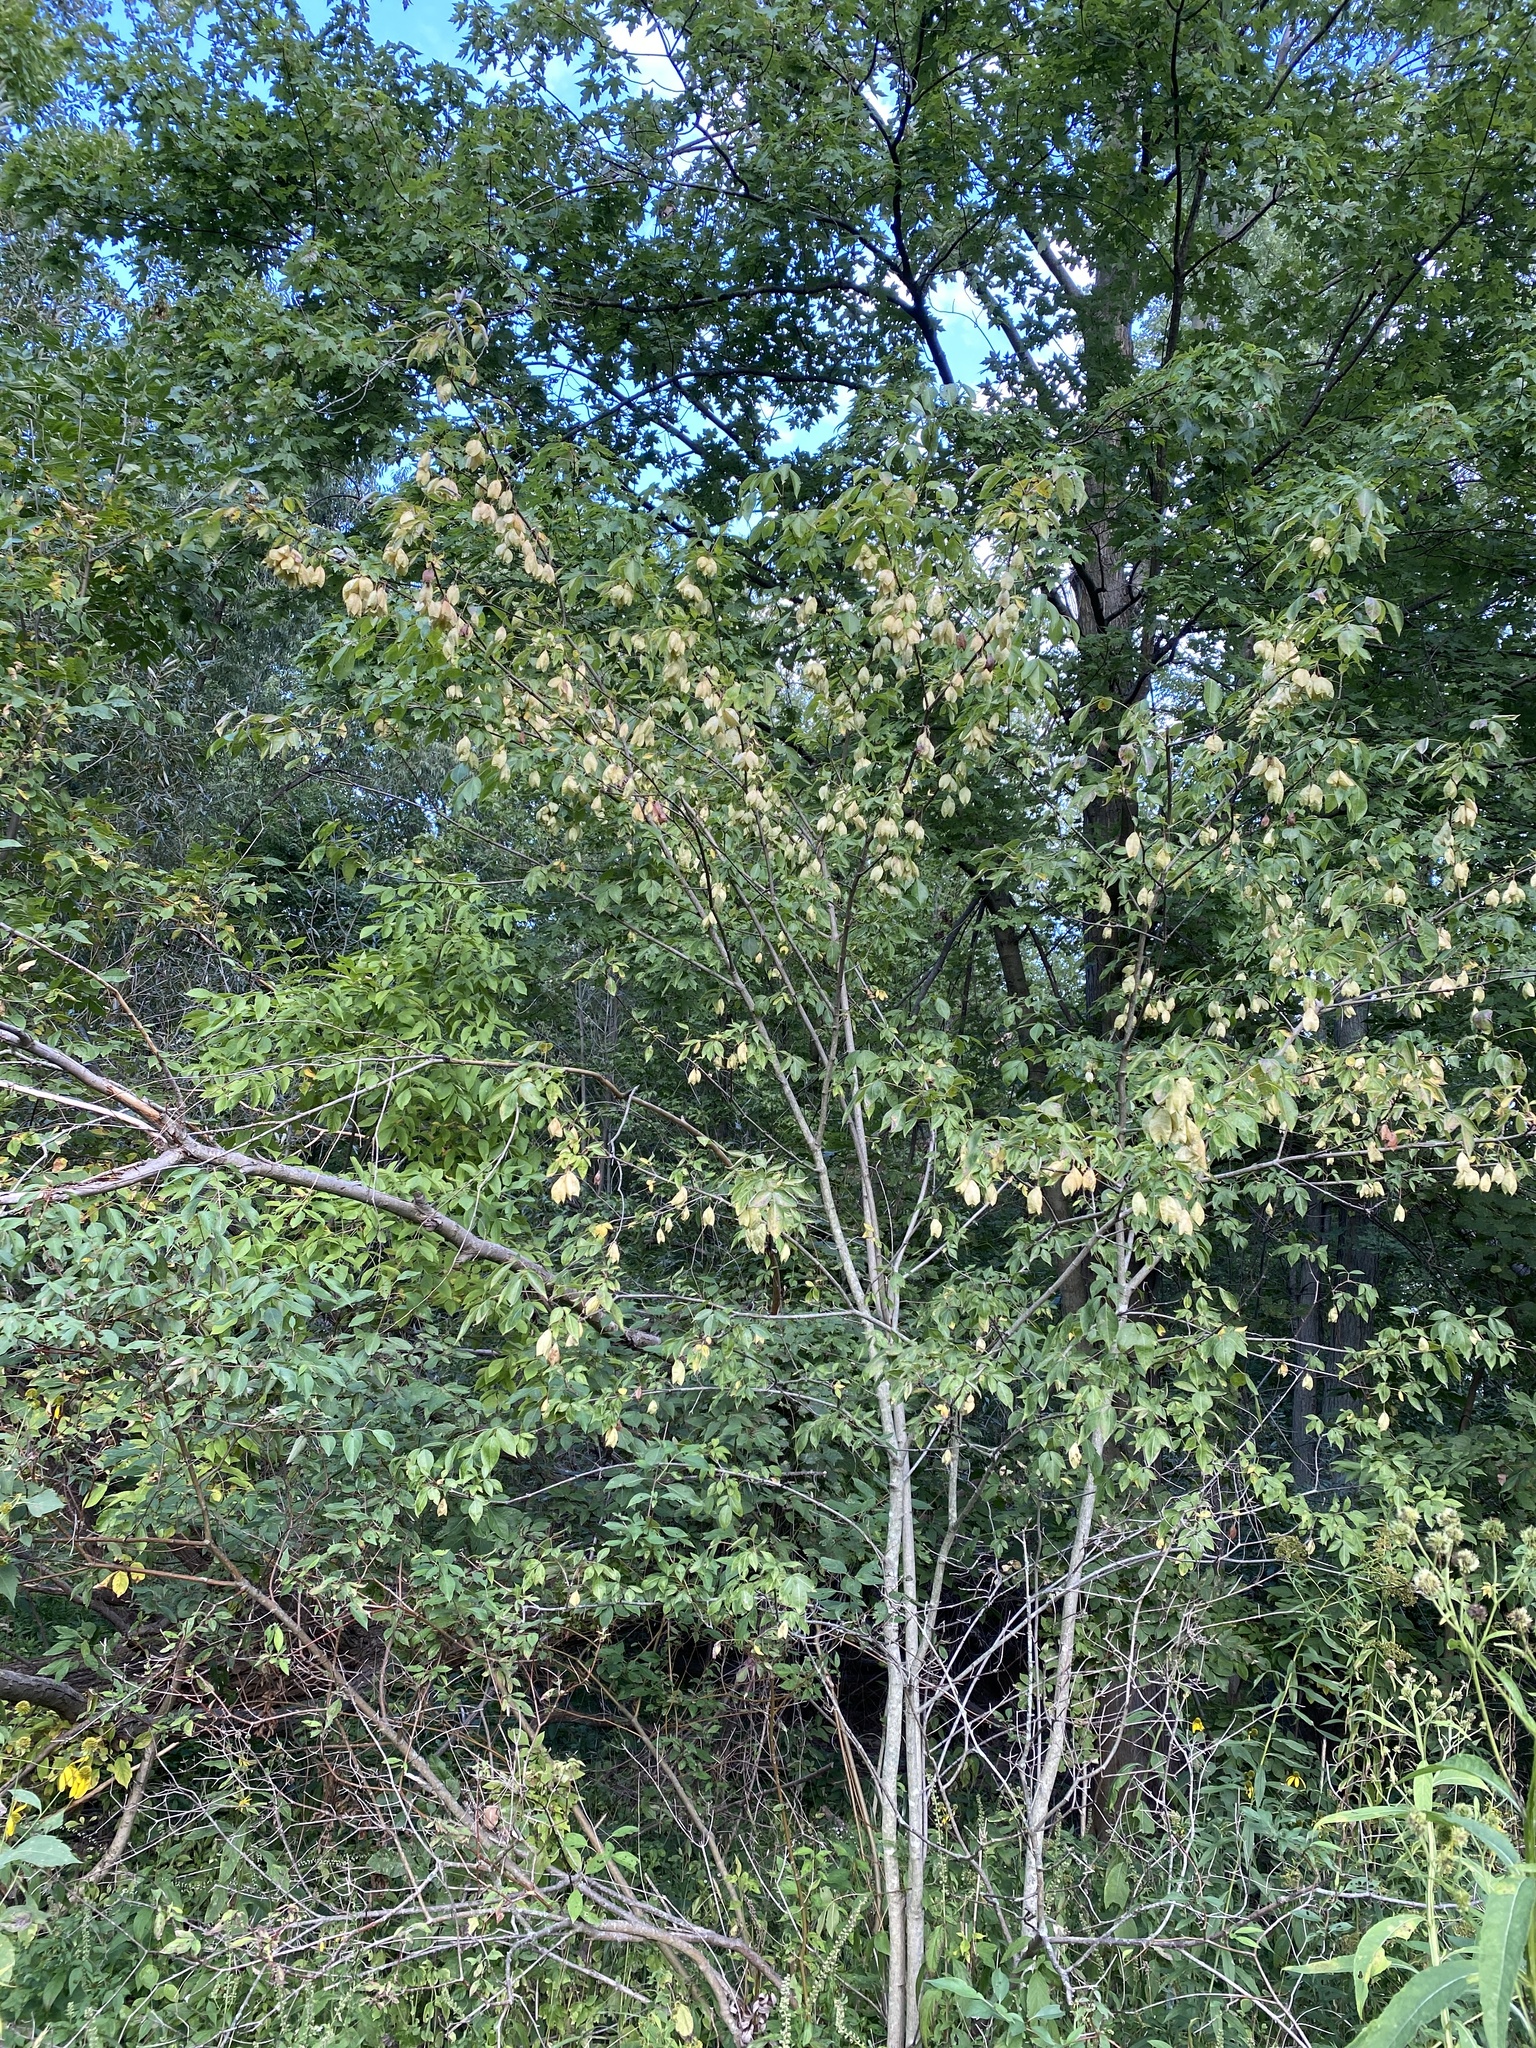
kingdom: Plantae
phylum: Tracheophyta
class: Magnoliopsida
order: Crossosomatales
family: Staphyleaceae
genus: Staphylea
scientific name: Staphylea trifolia
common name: American bladdernut
